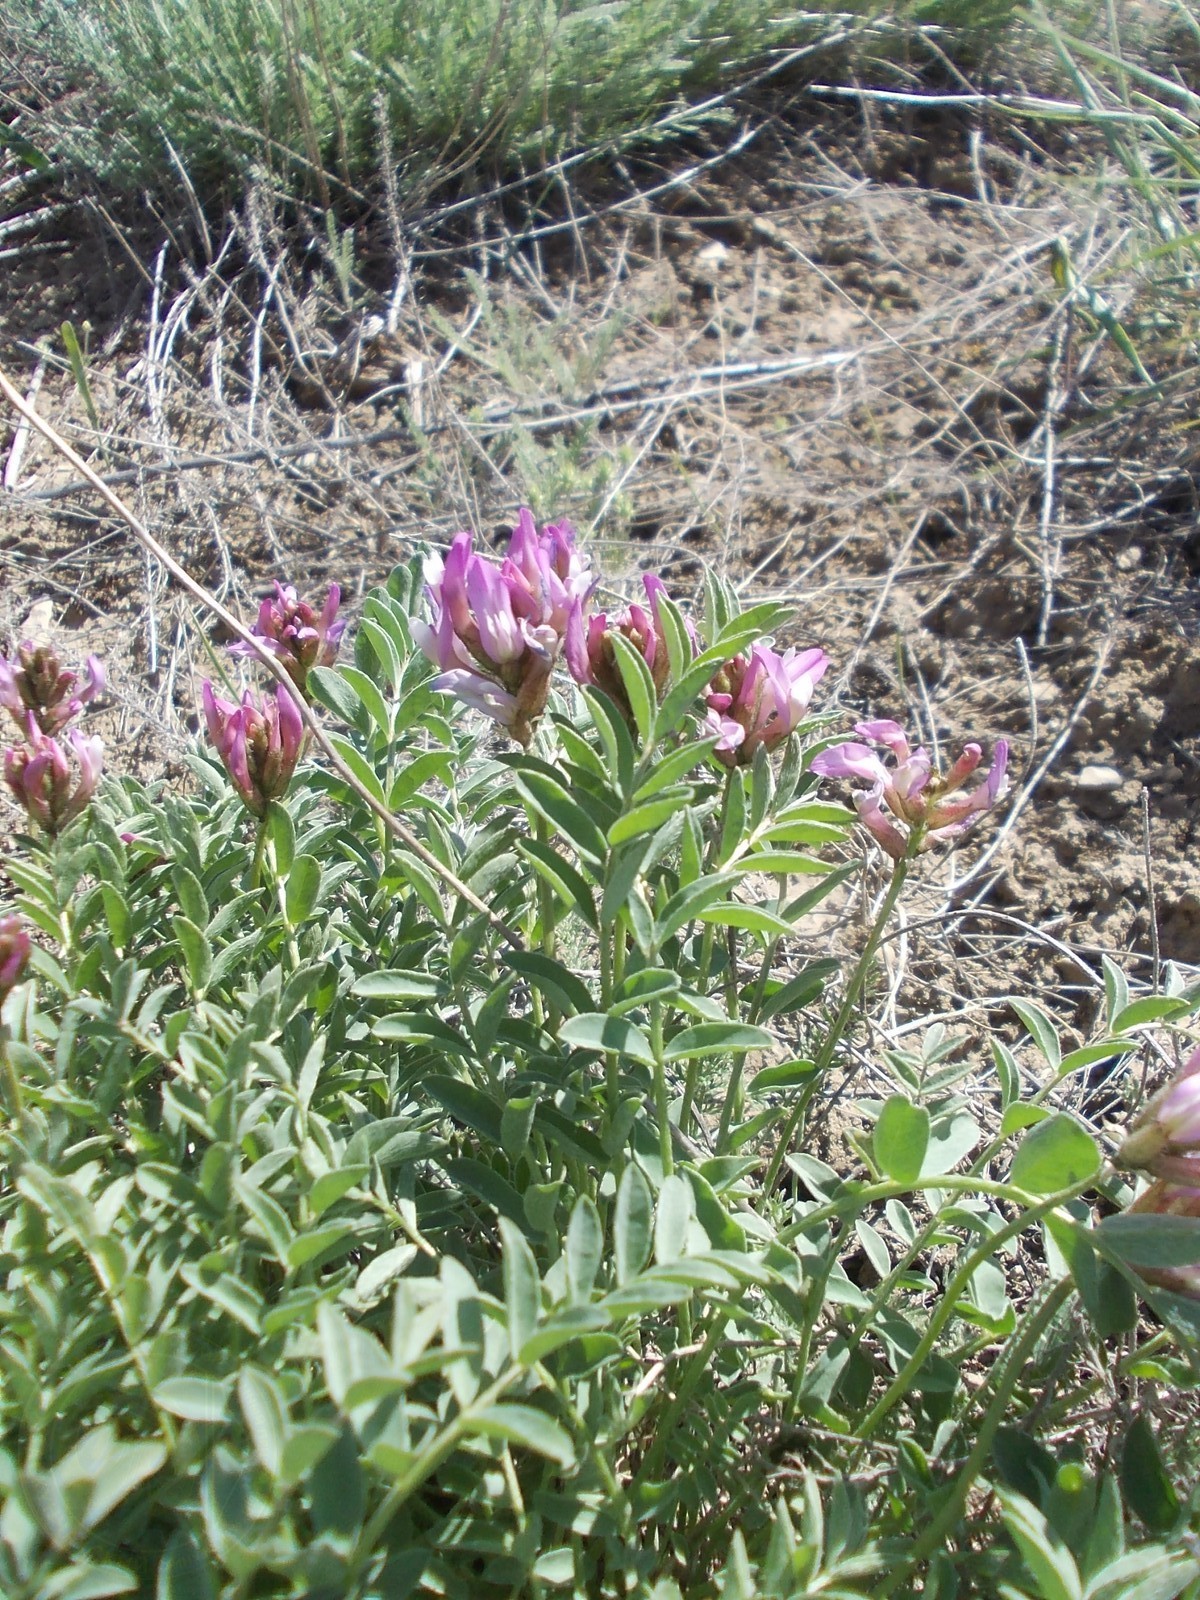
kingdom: Plantae
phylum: Tracheophyta
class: Magnoliopsida
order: Fabales
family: Fabaceae
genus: Astragalus
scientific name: Astragalus physodes
